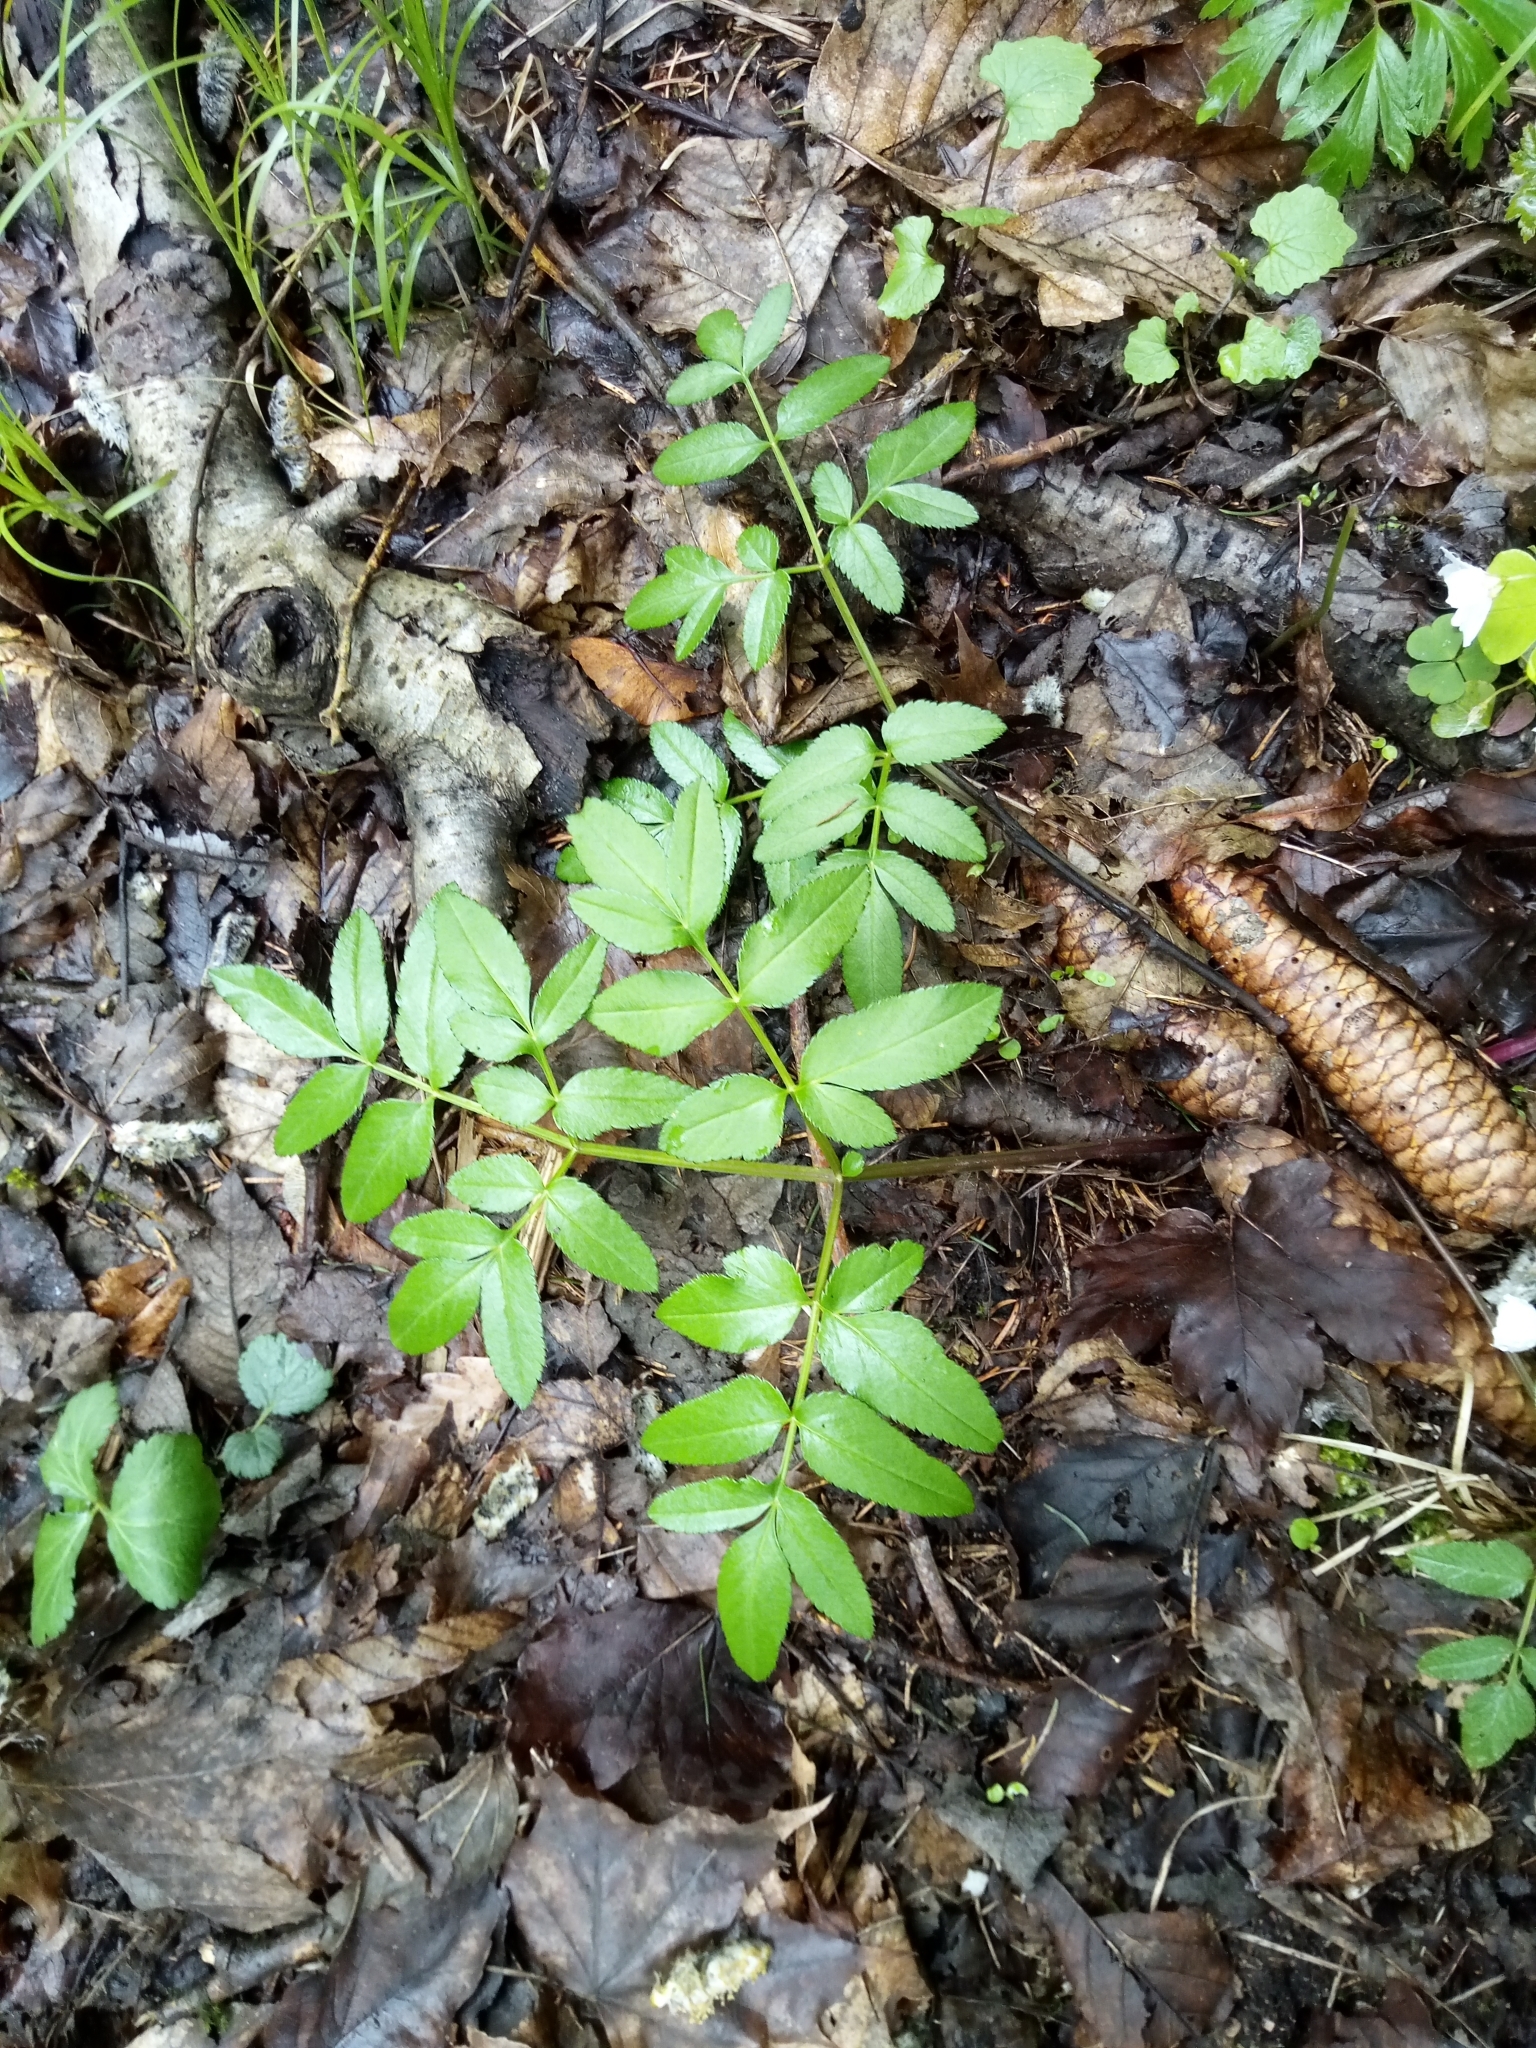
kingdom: Plantae
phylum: Tracheophyta
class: Magnoliopsida
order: Apiales
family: Apiaceae
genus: Angelica
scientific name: Angelica sylvestris
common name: Wild angelica
